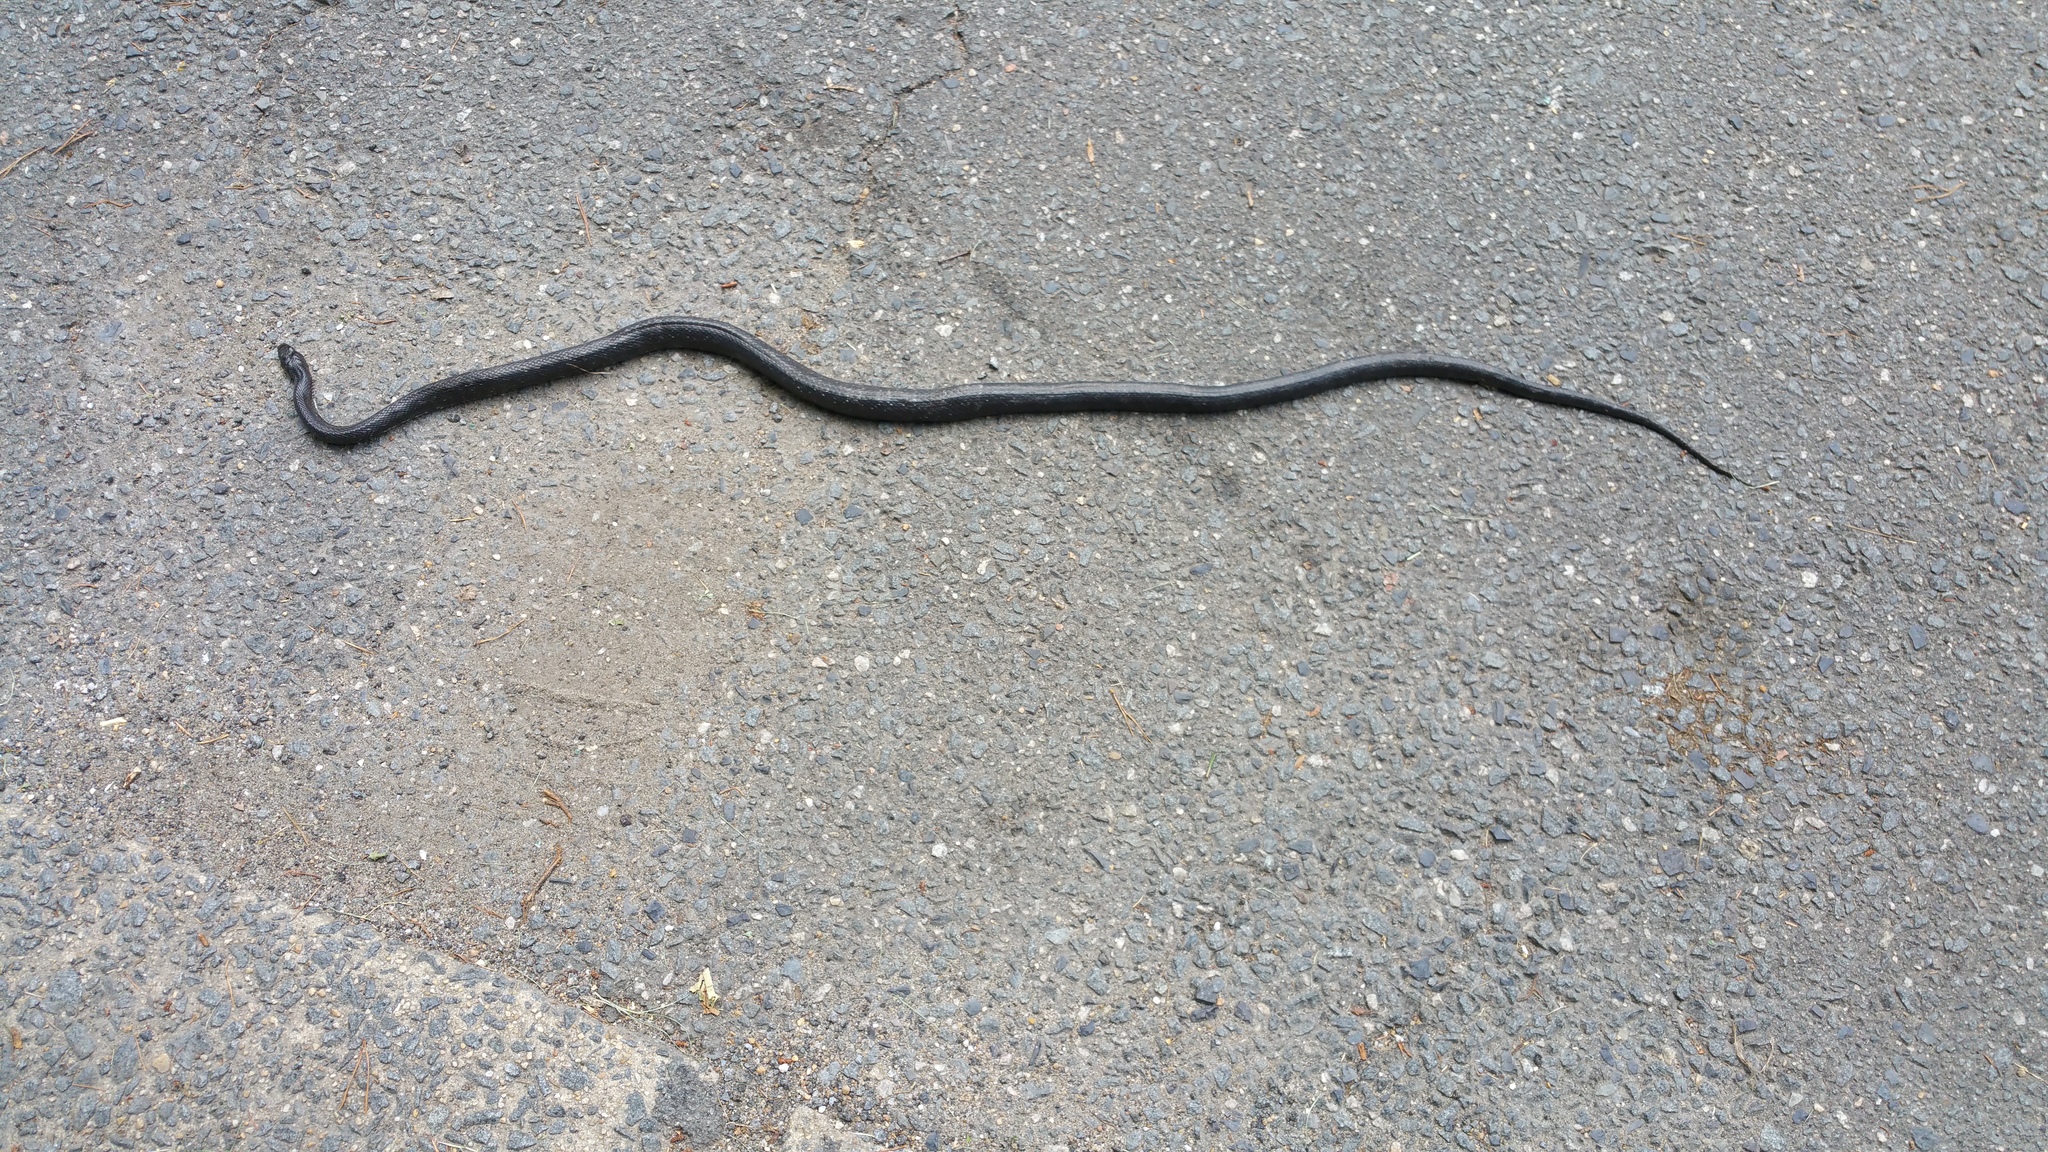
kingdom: Animalia
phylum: Chordata
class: Squamata
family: Colubridae
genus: Pantherophis
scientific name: Pantherophis alleghaniensis
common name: Eastern rat snake
